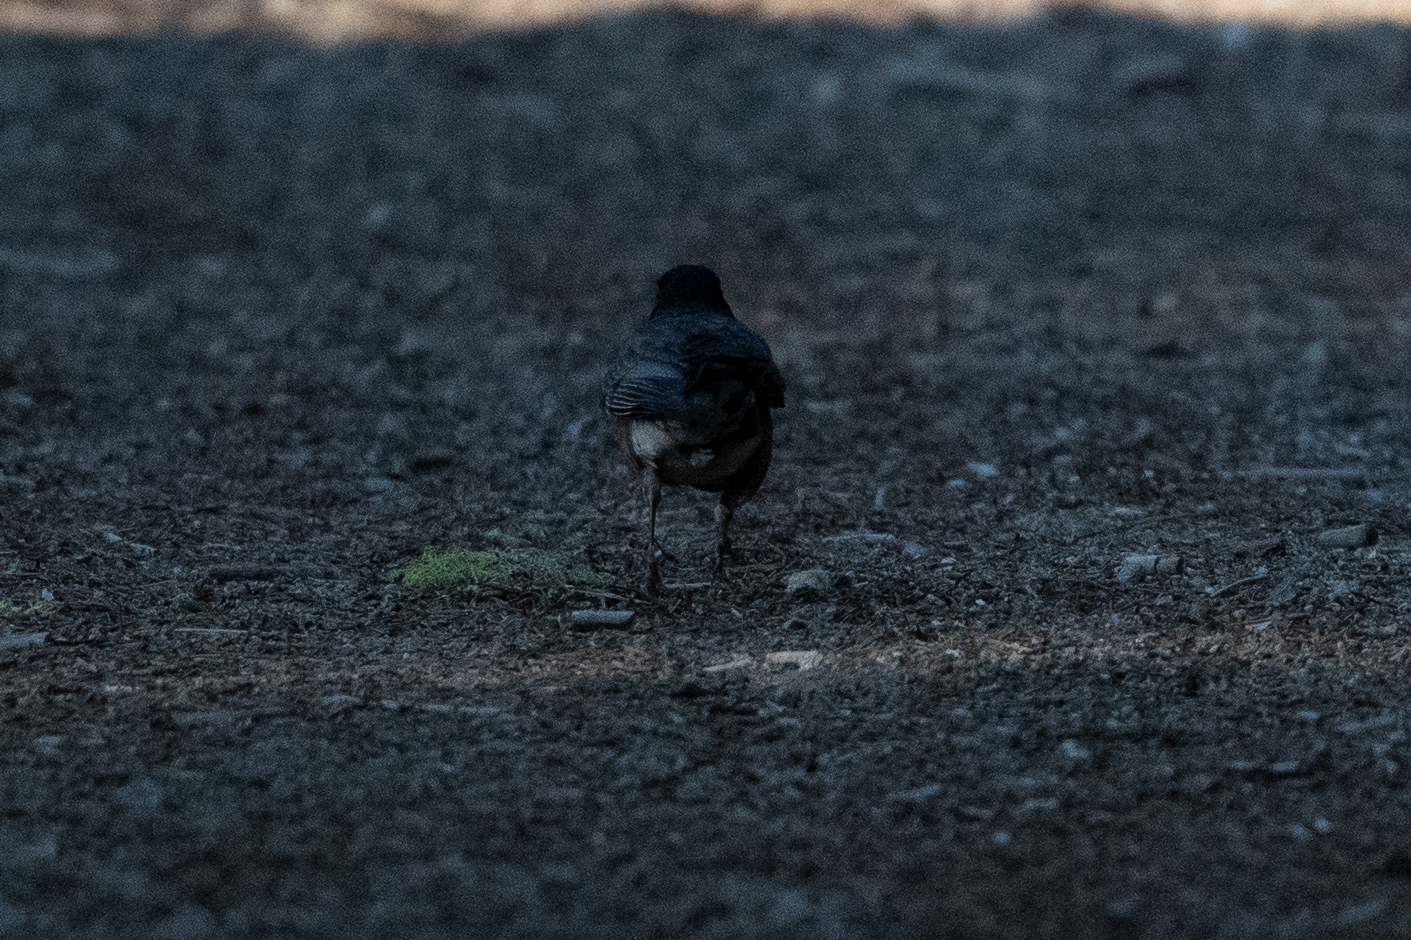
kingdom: Animalia
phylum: Chordata
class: Aves
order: Passeriformes
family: Turdidae
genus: Turdus
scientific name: Turdus migratorius
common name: American robin
